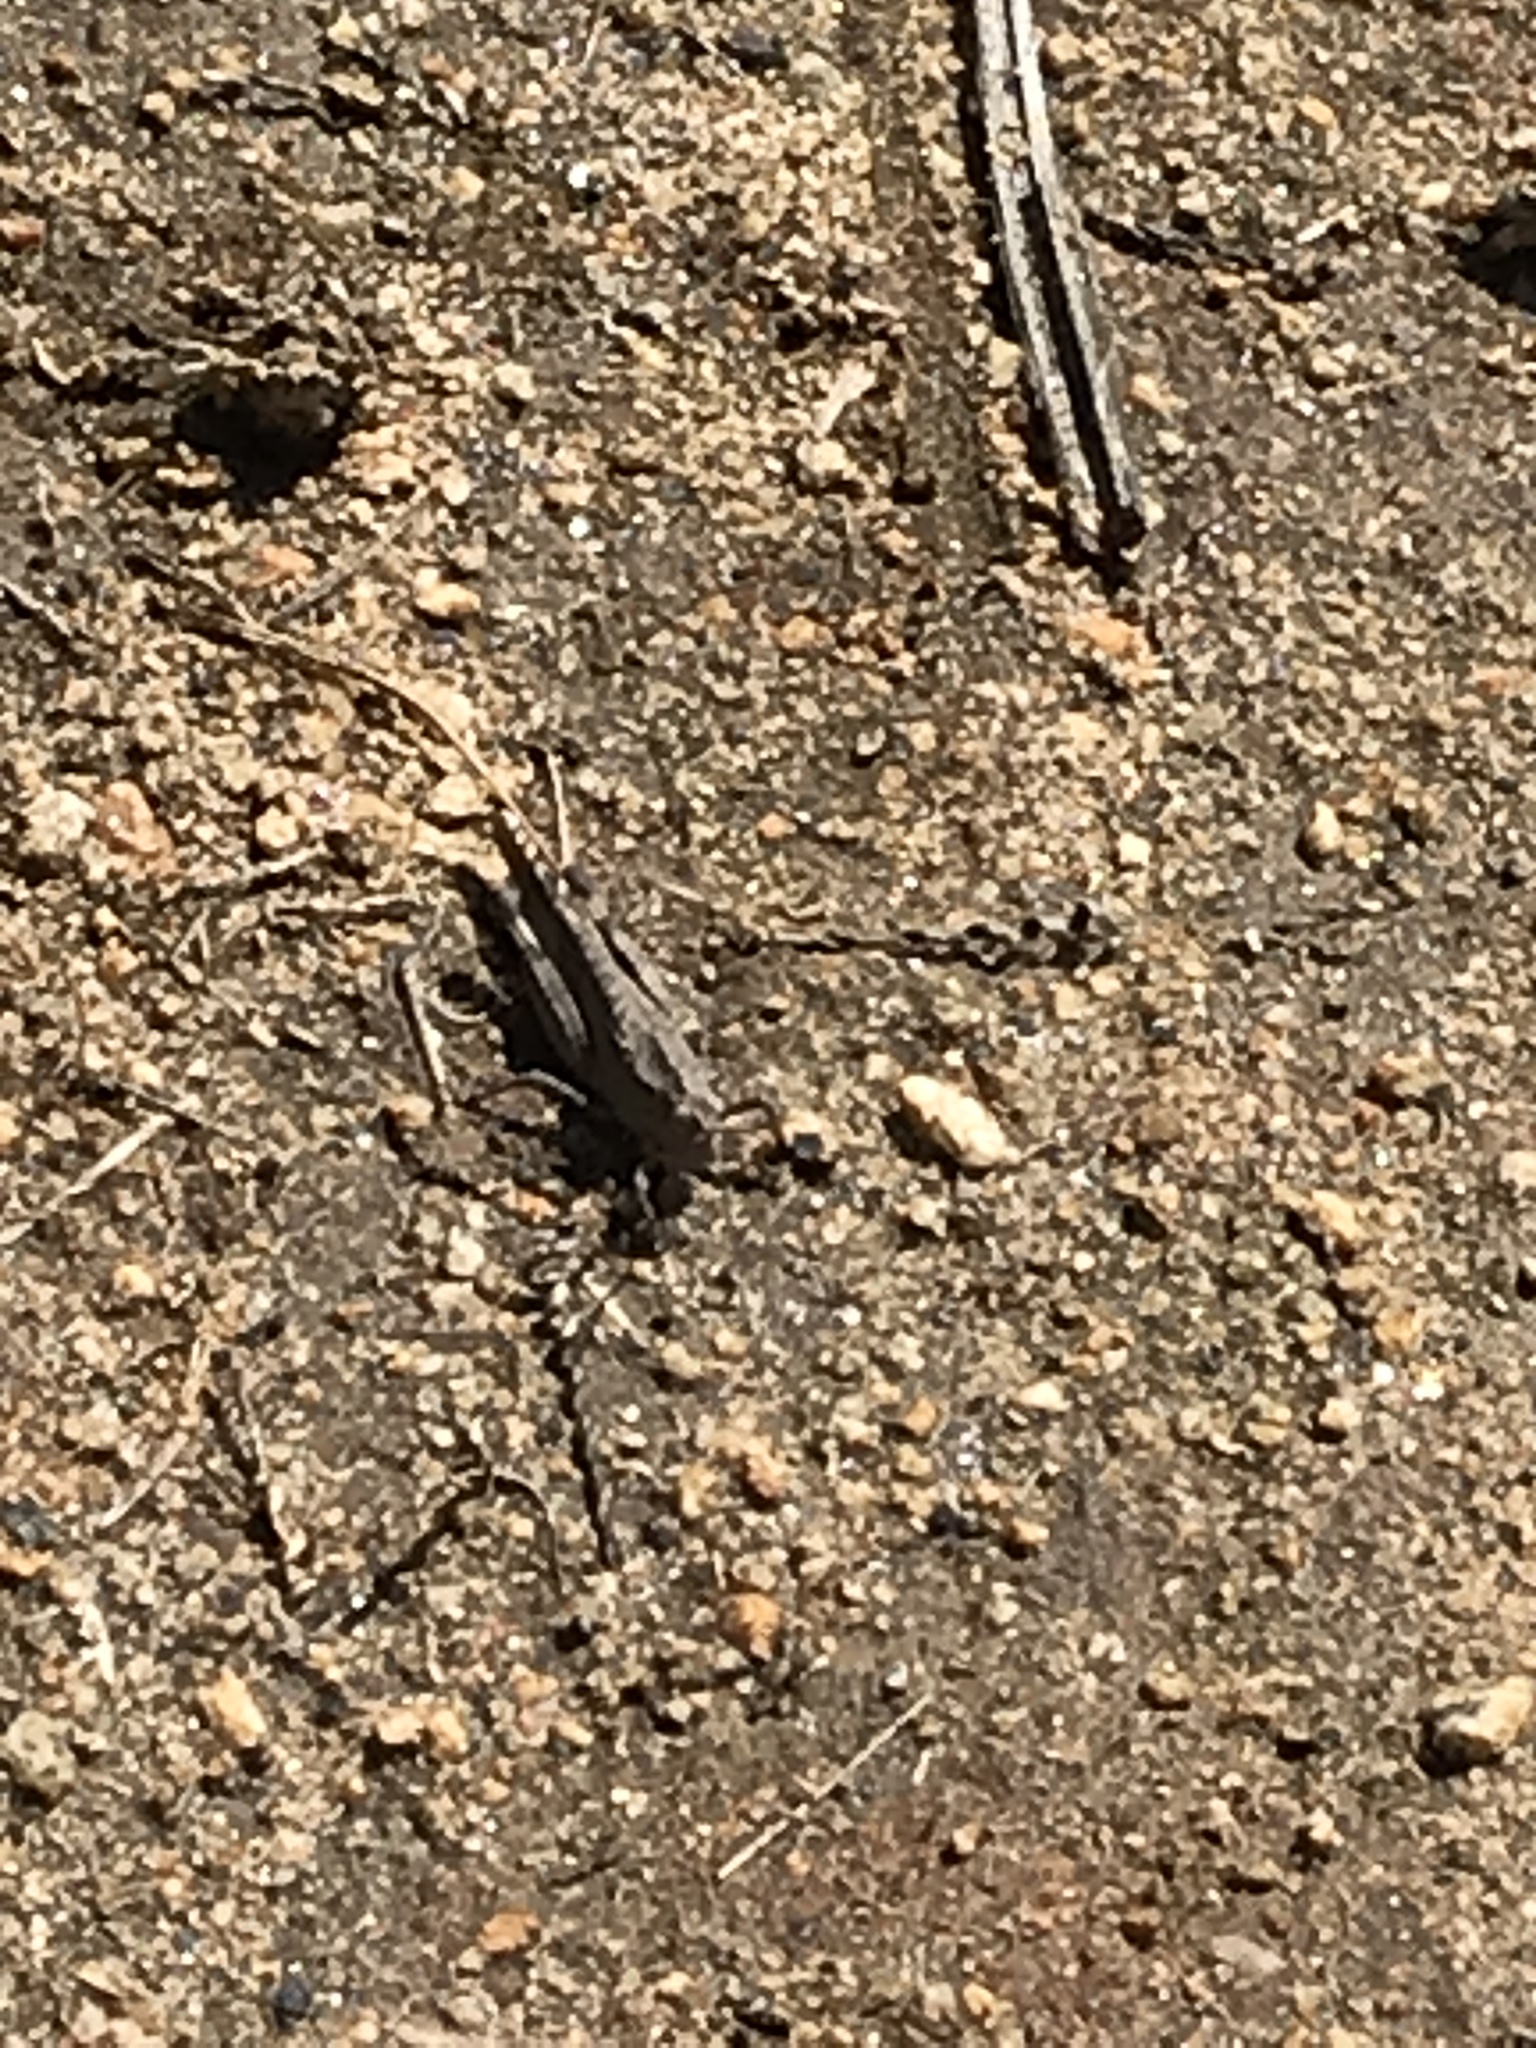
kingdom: Animalia
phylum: Arthropoda
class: Insecta
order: Orthoptera
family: Acrididae
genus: Lactista
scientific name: Lactista gibbosus
